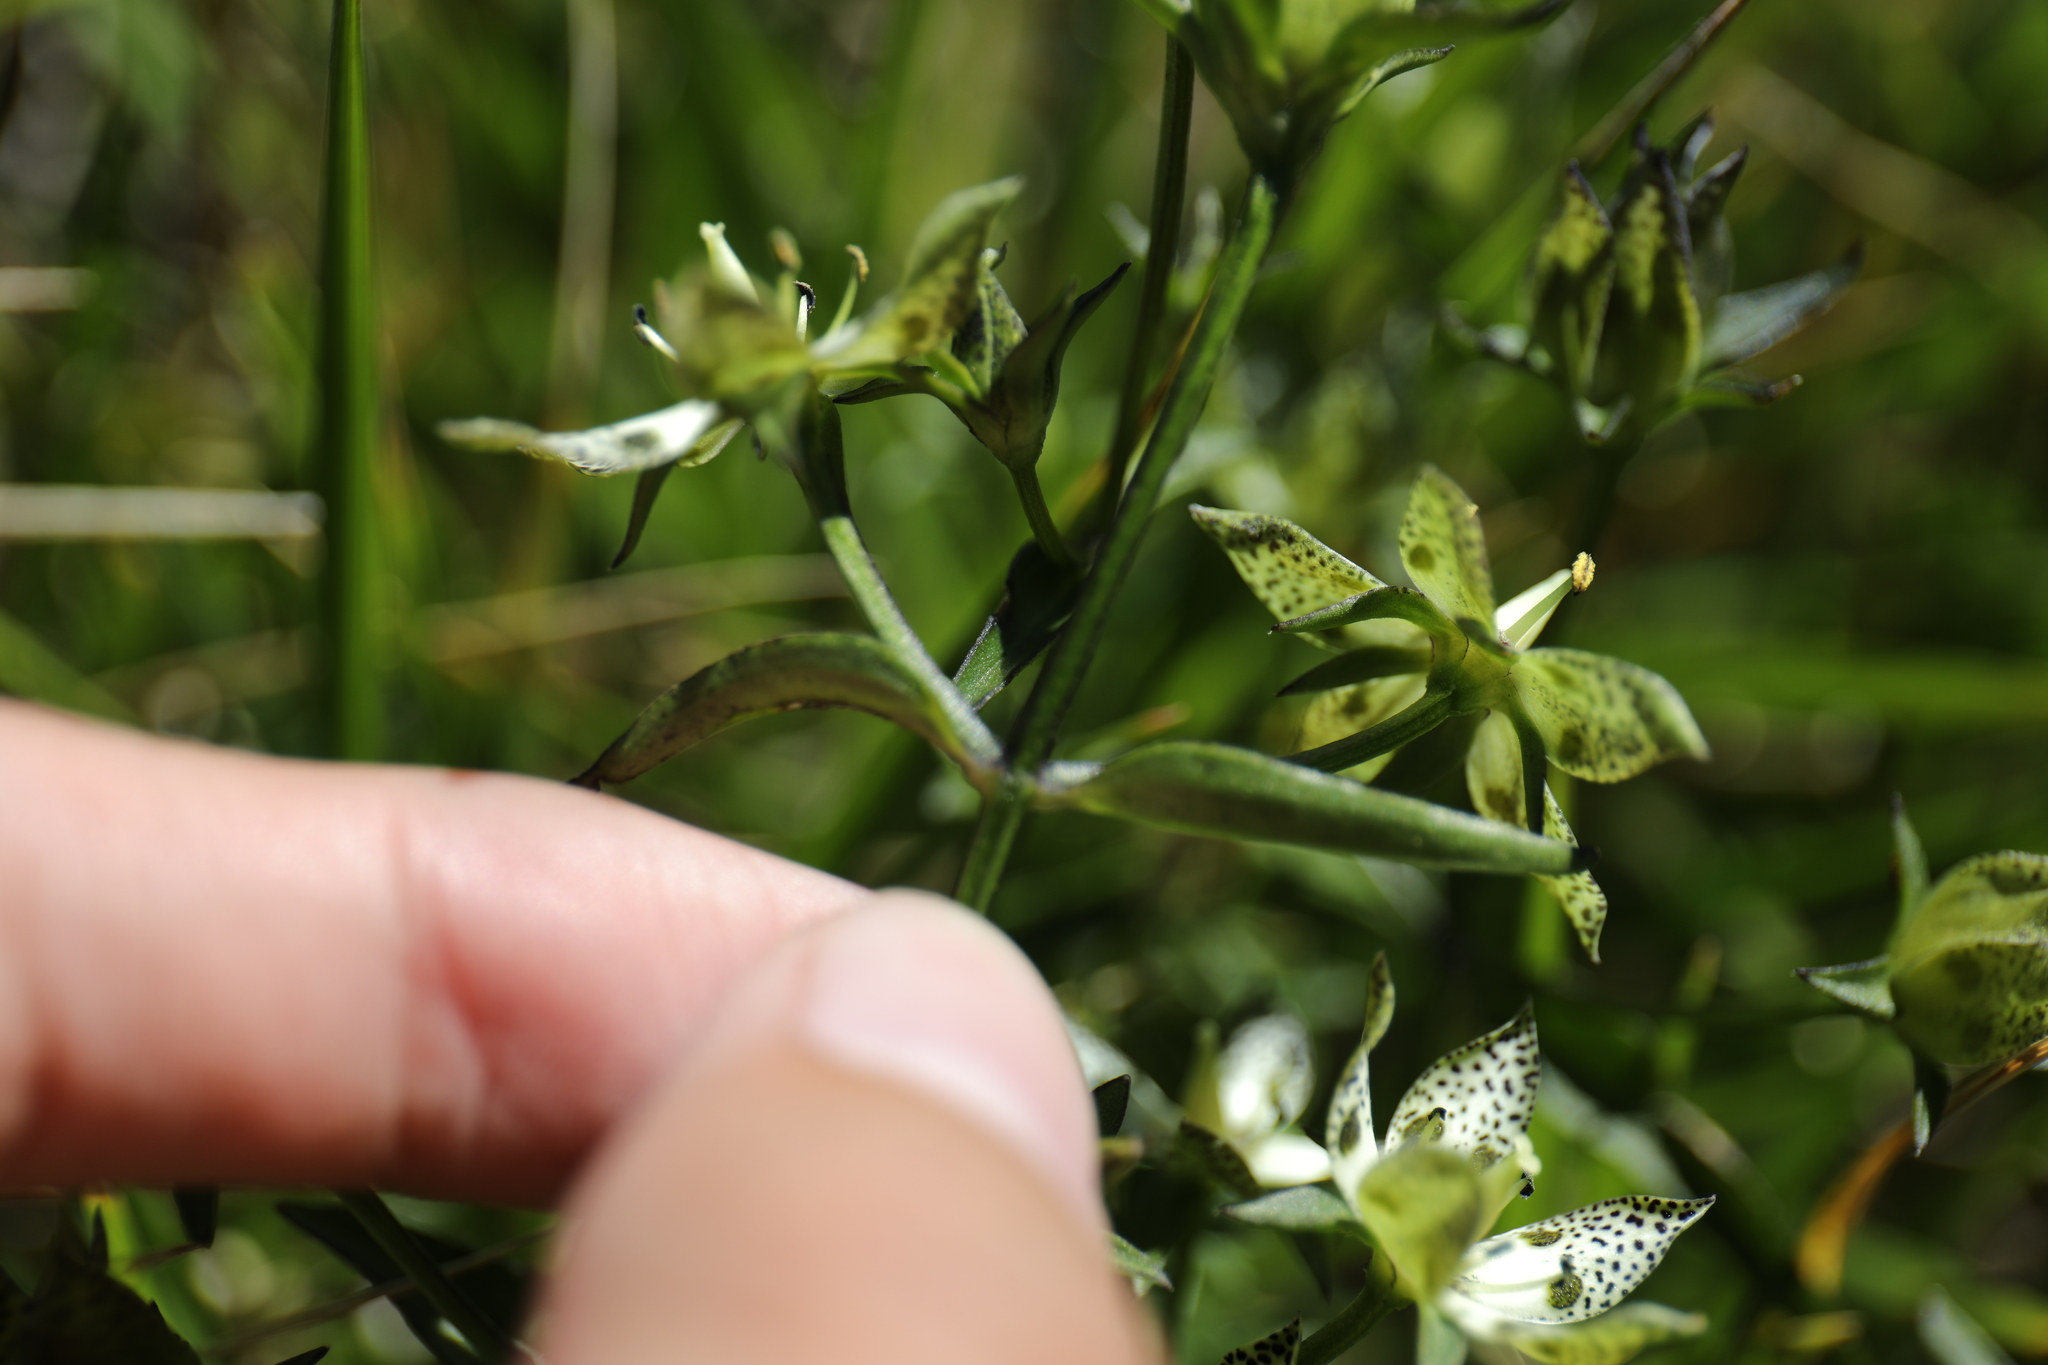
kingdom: Plantae
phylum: Tracheophyta
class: Magnoliopsida
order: Gentianales
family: Gentianaceae
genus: Swertia
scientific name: Swertia tozanensis
